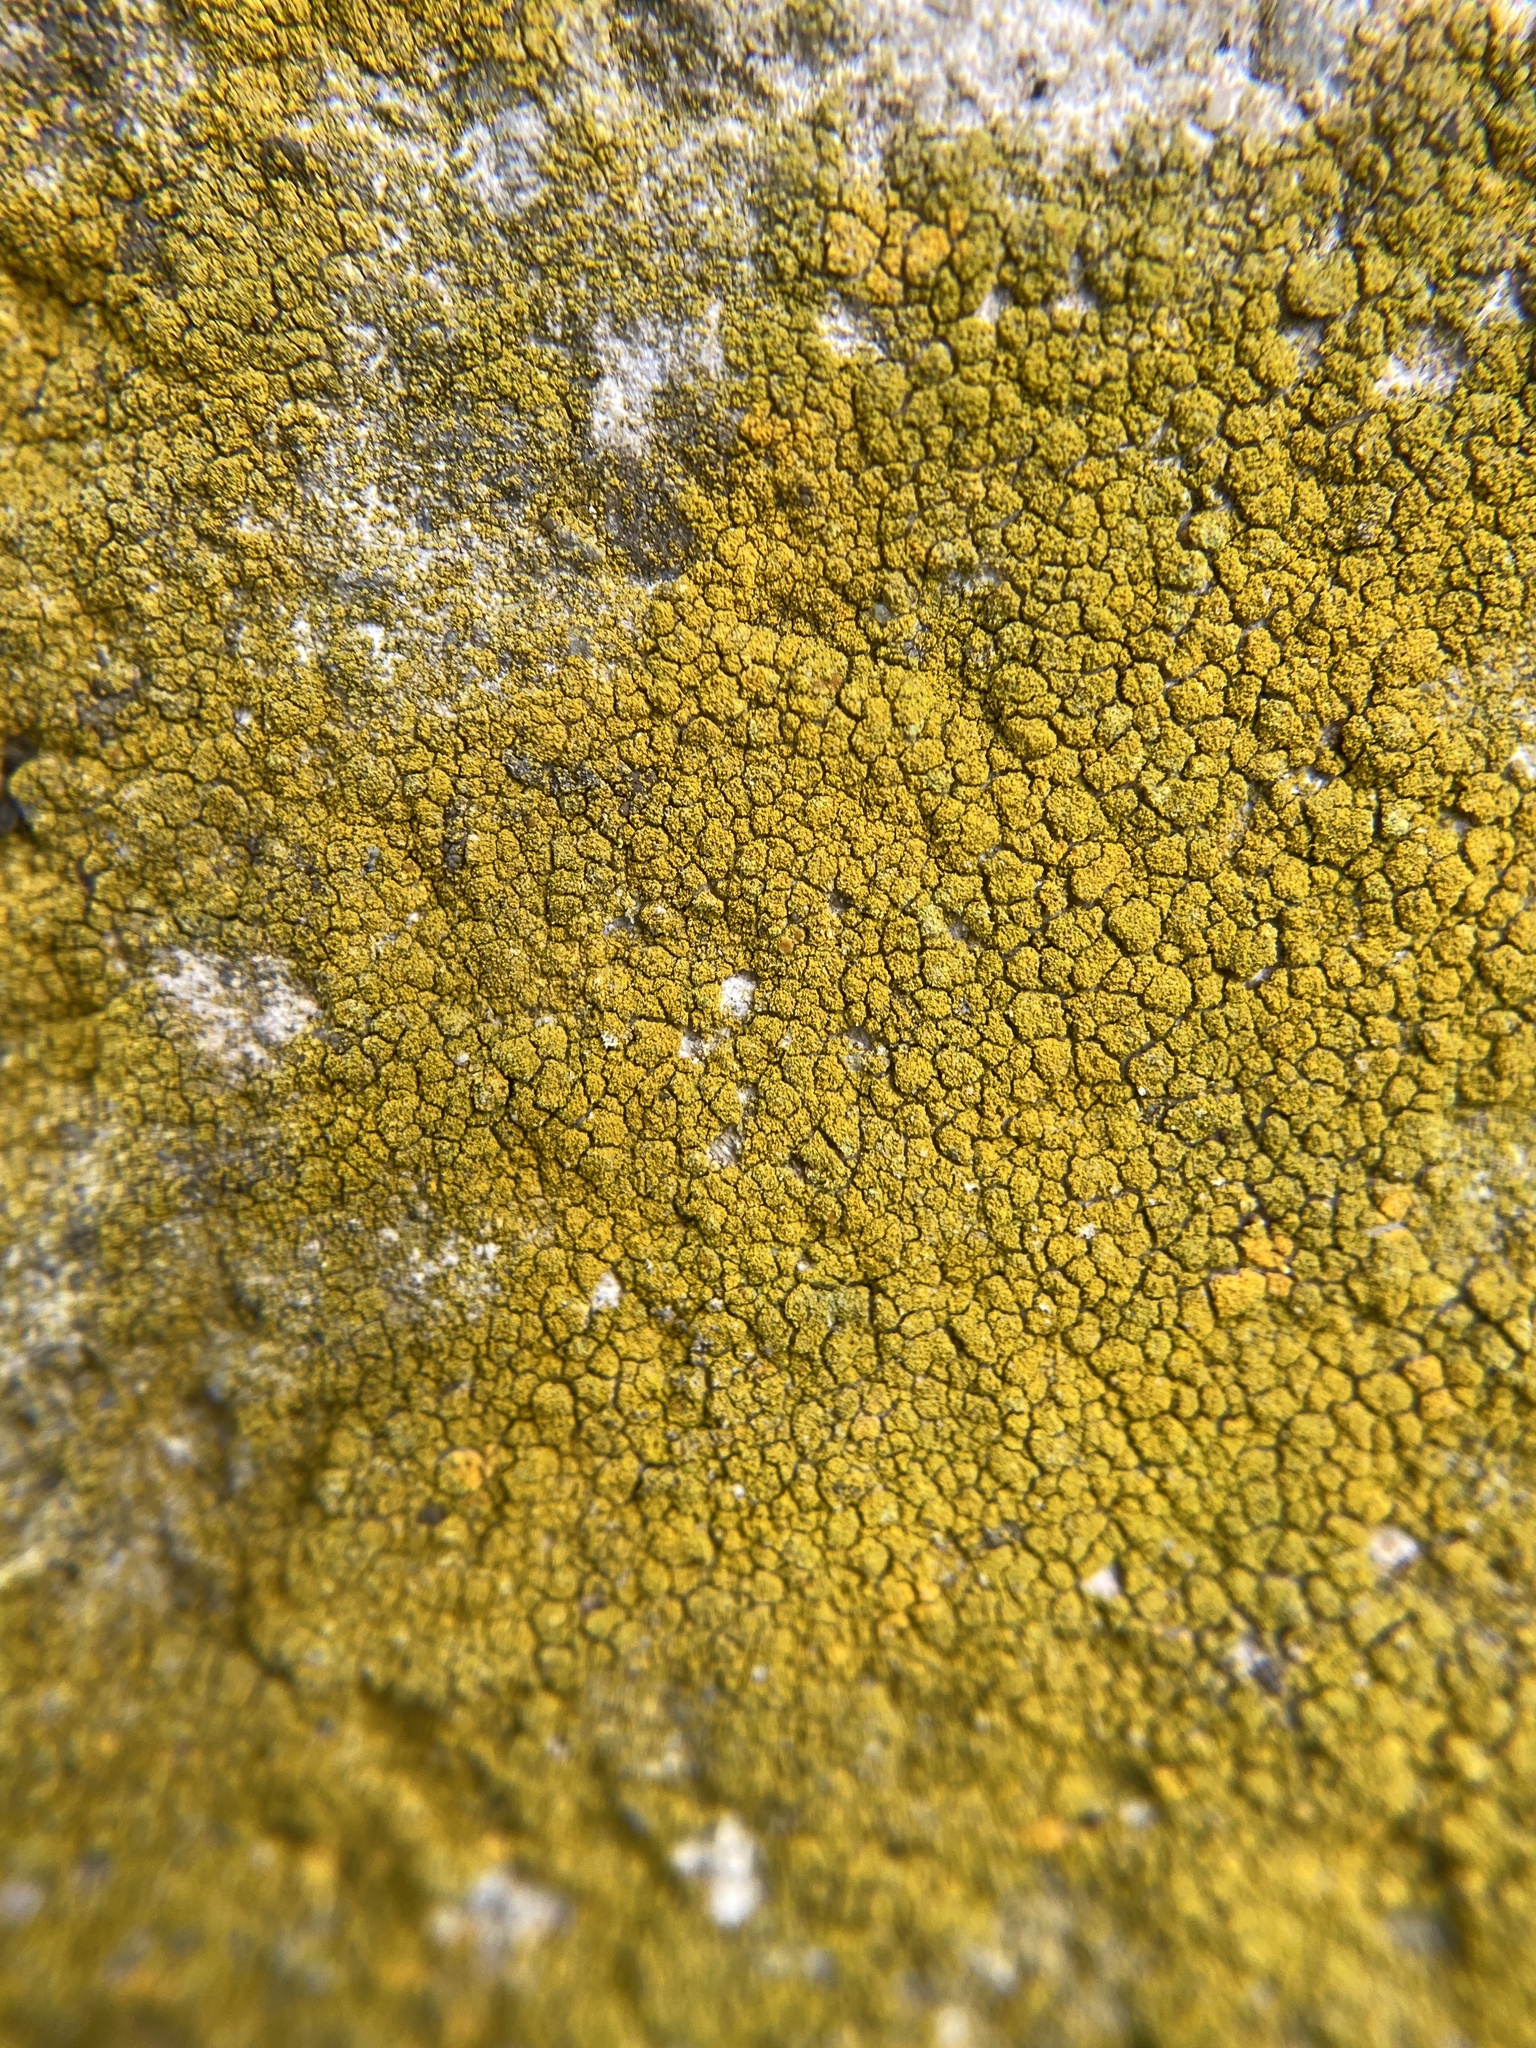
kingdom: Fungi
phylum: Ascomycota
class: Candelariomycetes
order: Candelariales
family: Candelariaceae
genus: Candelariella
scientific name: Candelariella vitellina
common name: Common goldspeck
